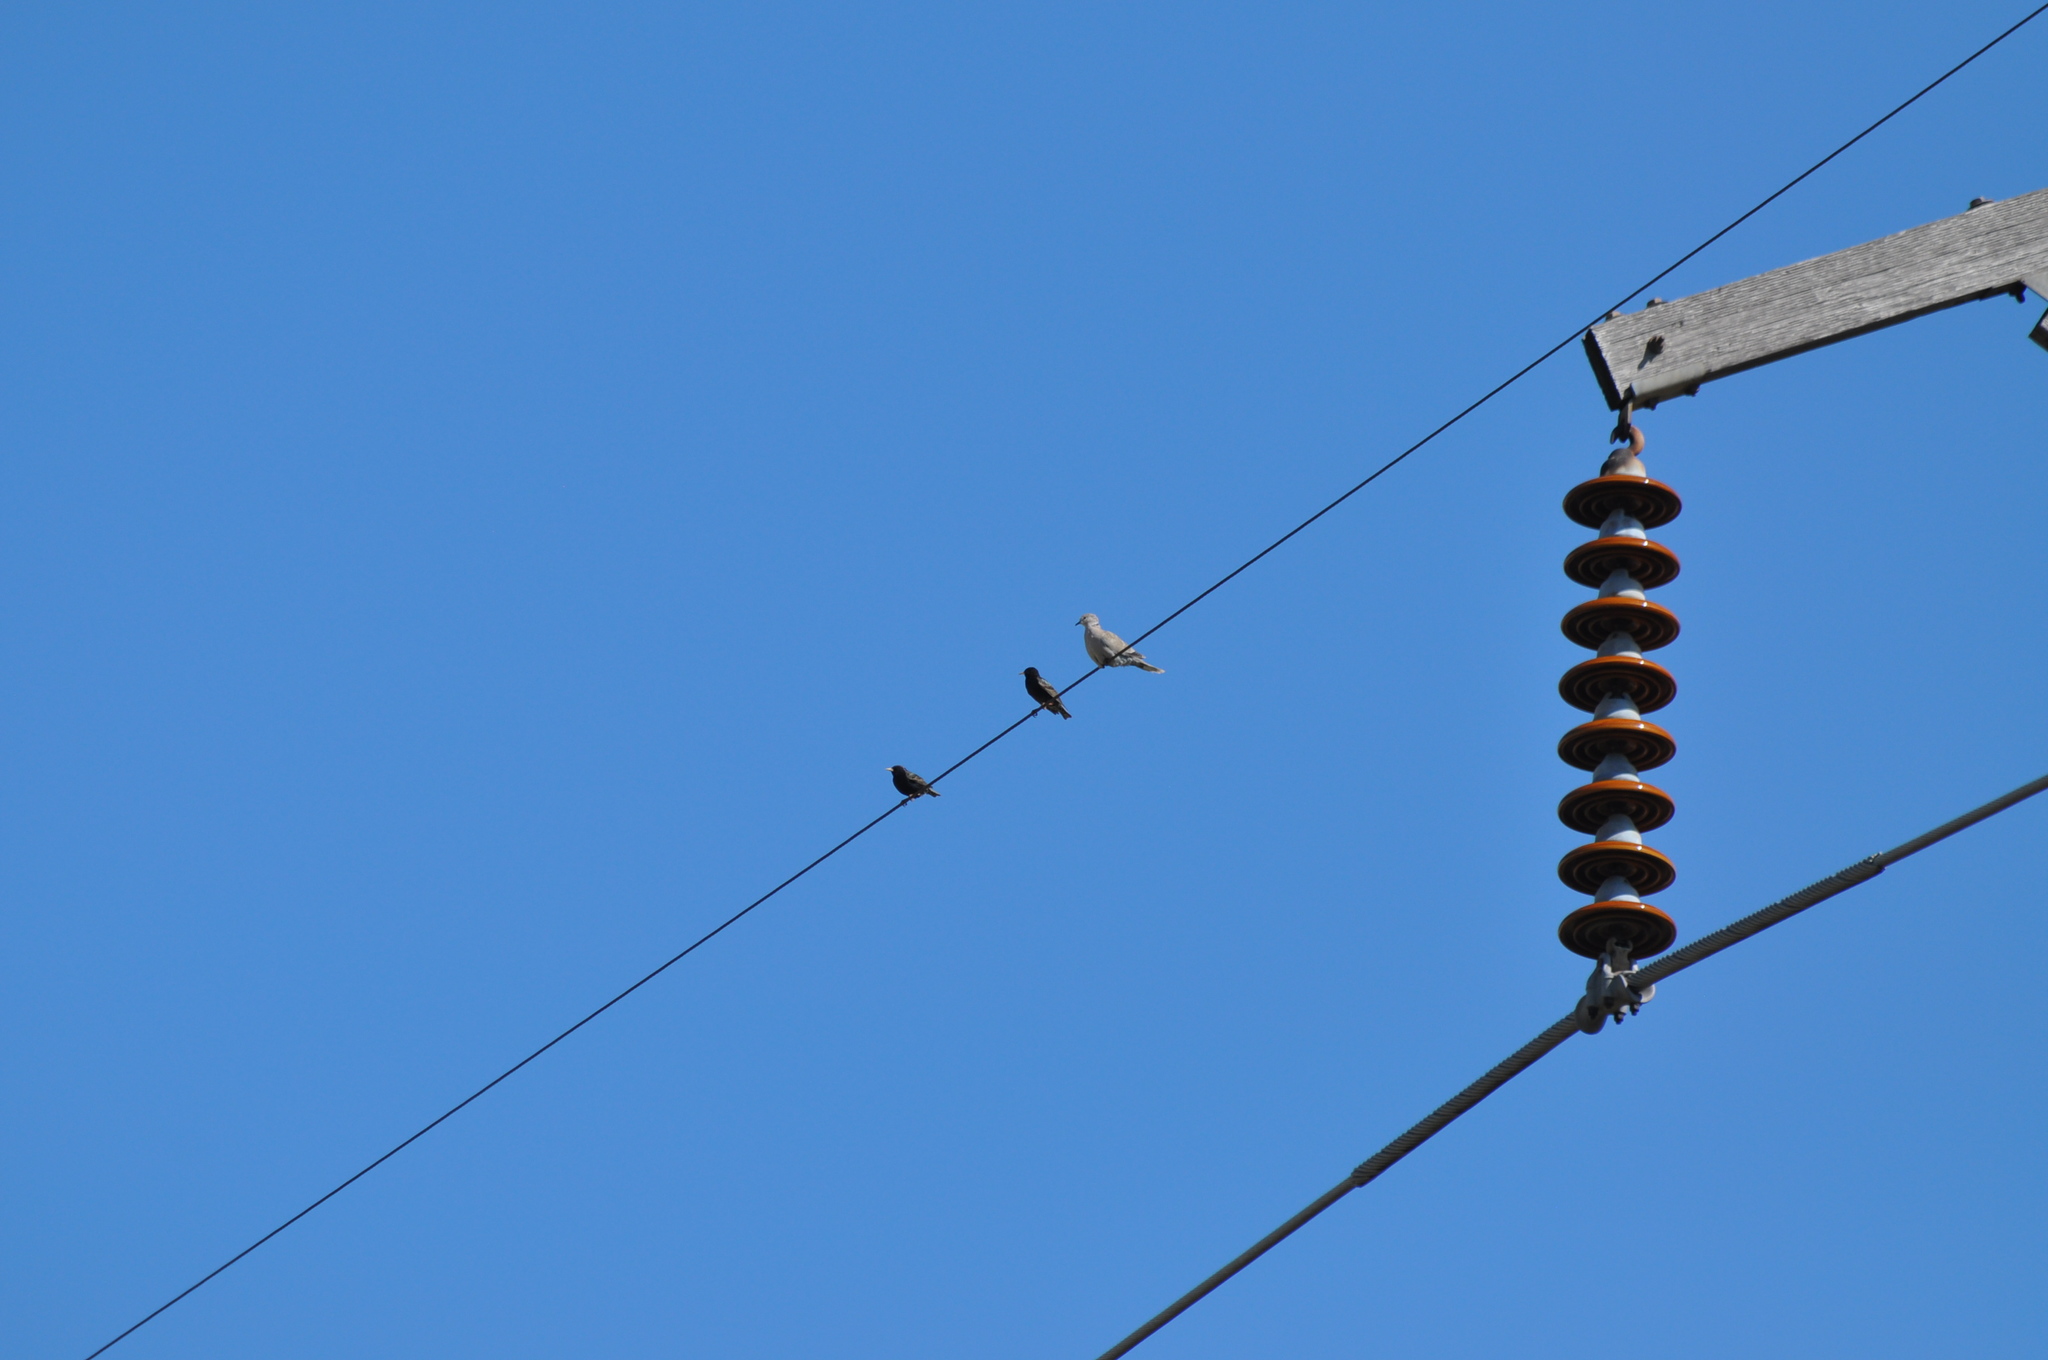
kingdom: Animalia
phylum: Chordata
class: Aves
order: Columbiformes
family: Columbidae
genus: Streptopelia
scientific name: Streptopelia decaocto
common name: Eurasian collared dove
